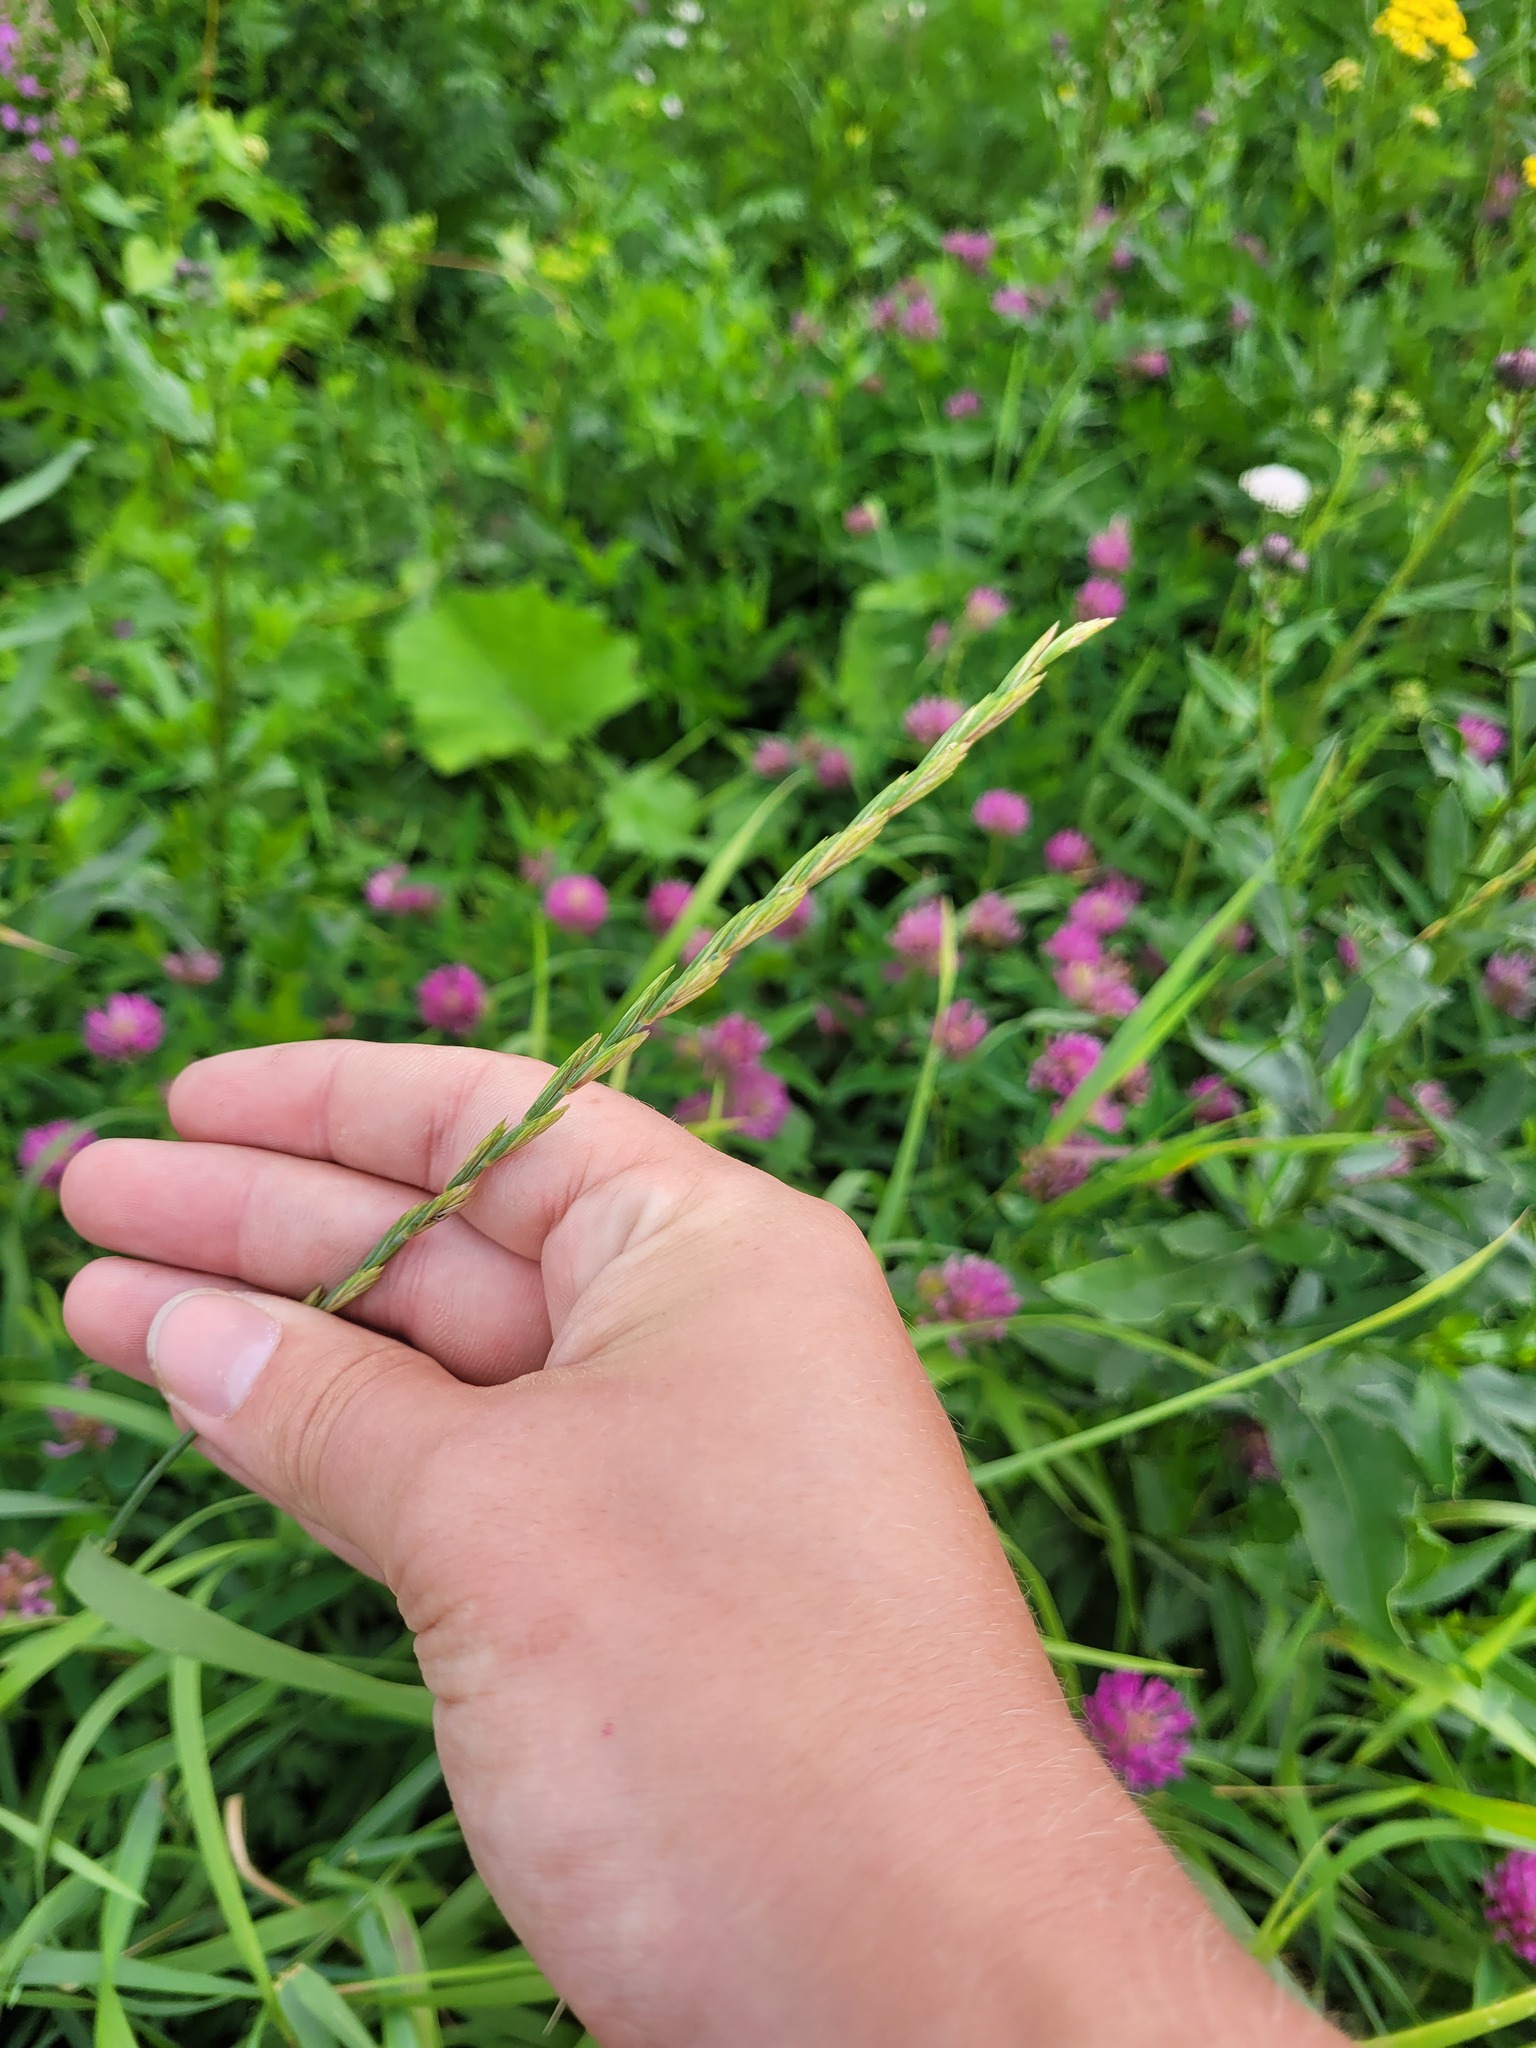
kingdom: Plantae
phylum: Tracheophyta
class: Liliopsida
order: Poales
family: Poaceae
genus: Elymus
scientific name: Elymus repens
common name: Quackgrass
